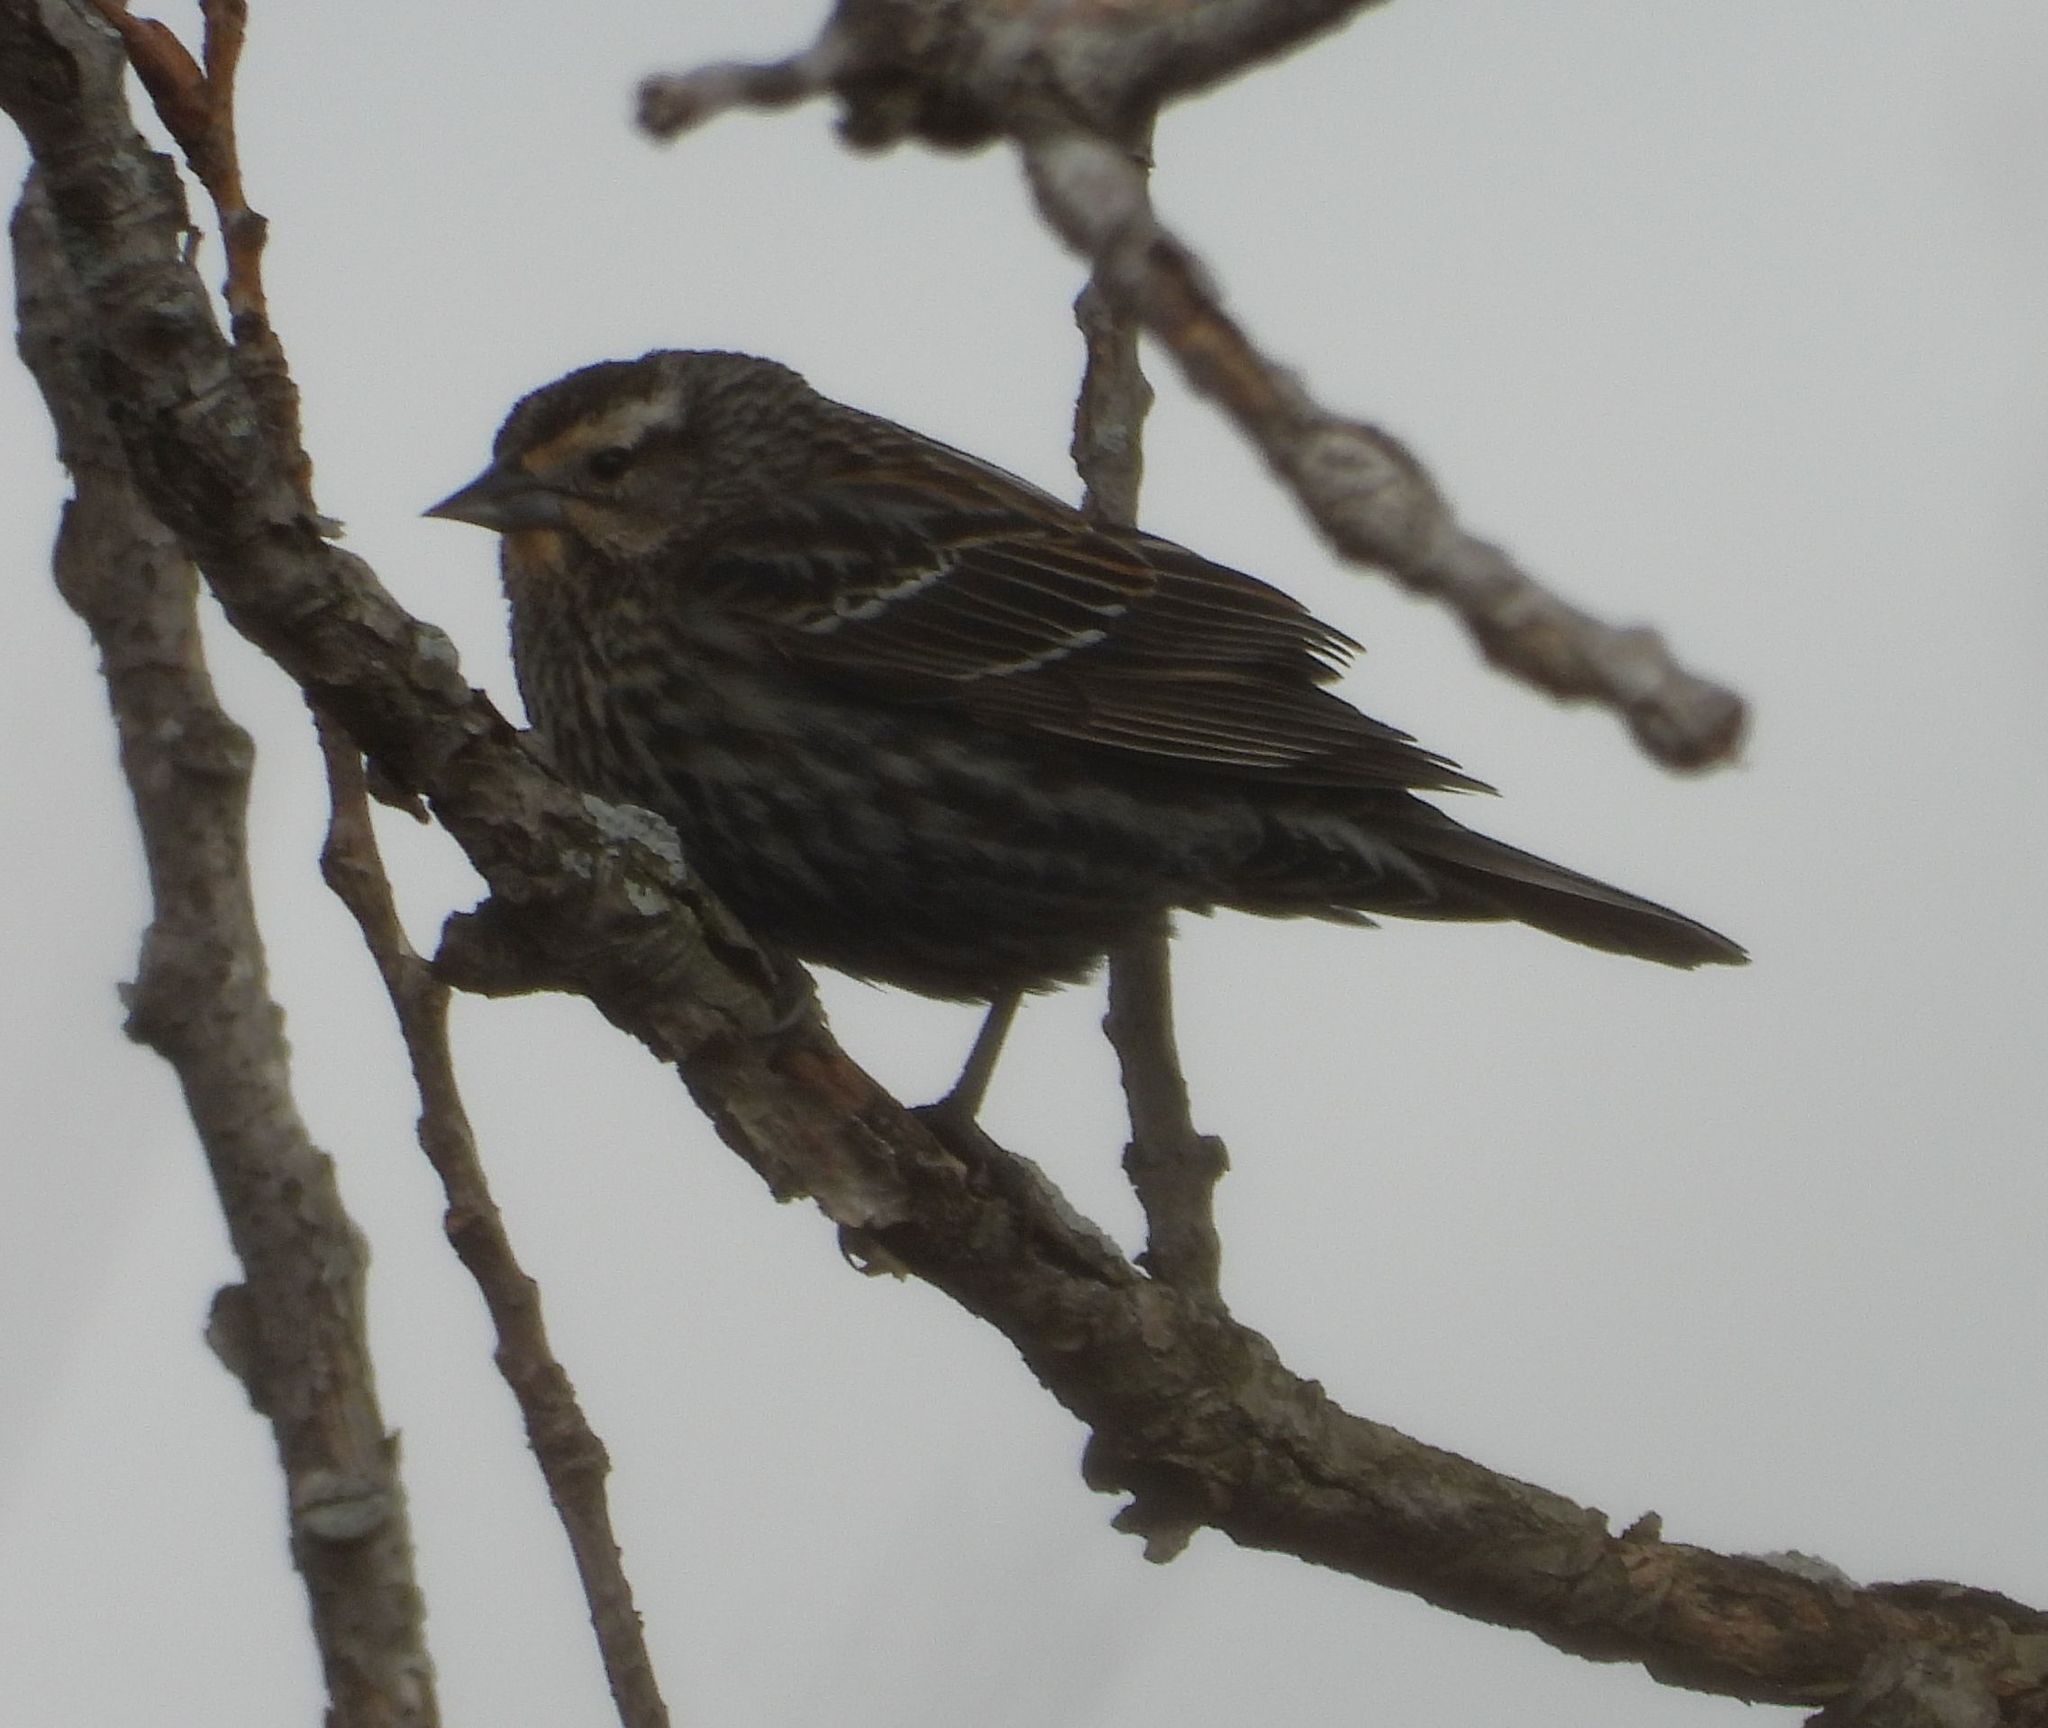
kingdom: Animalia
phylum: Chordata
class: Aves
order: Passeriformes
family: Icteridae
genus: Agelaius
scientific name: Agelaius phoeniceus
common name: Red-winged blackbird
